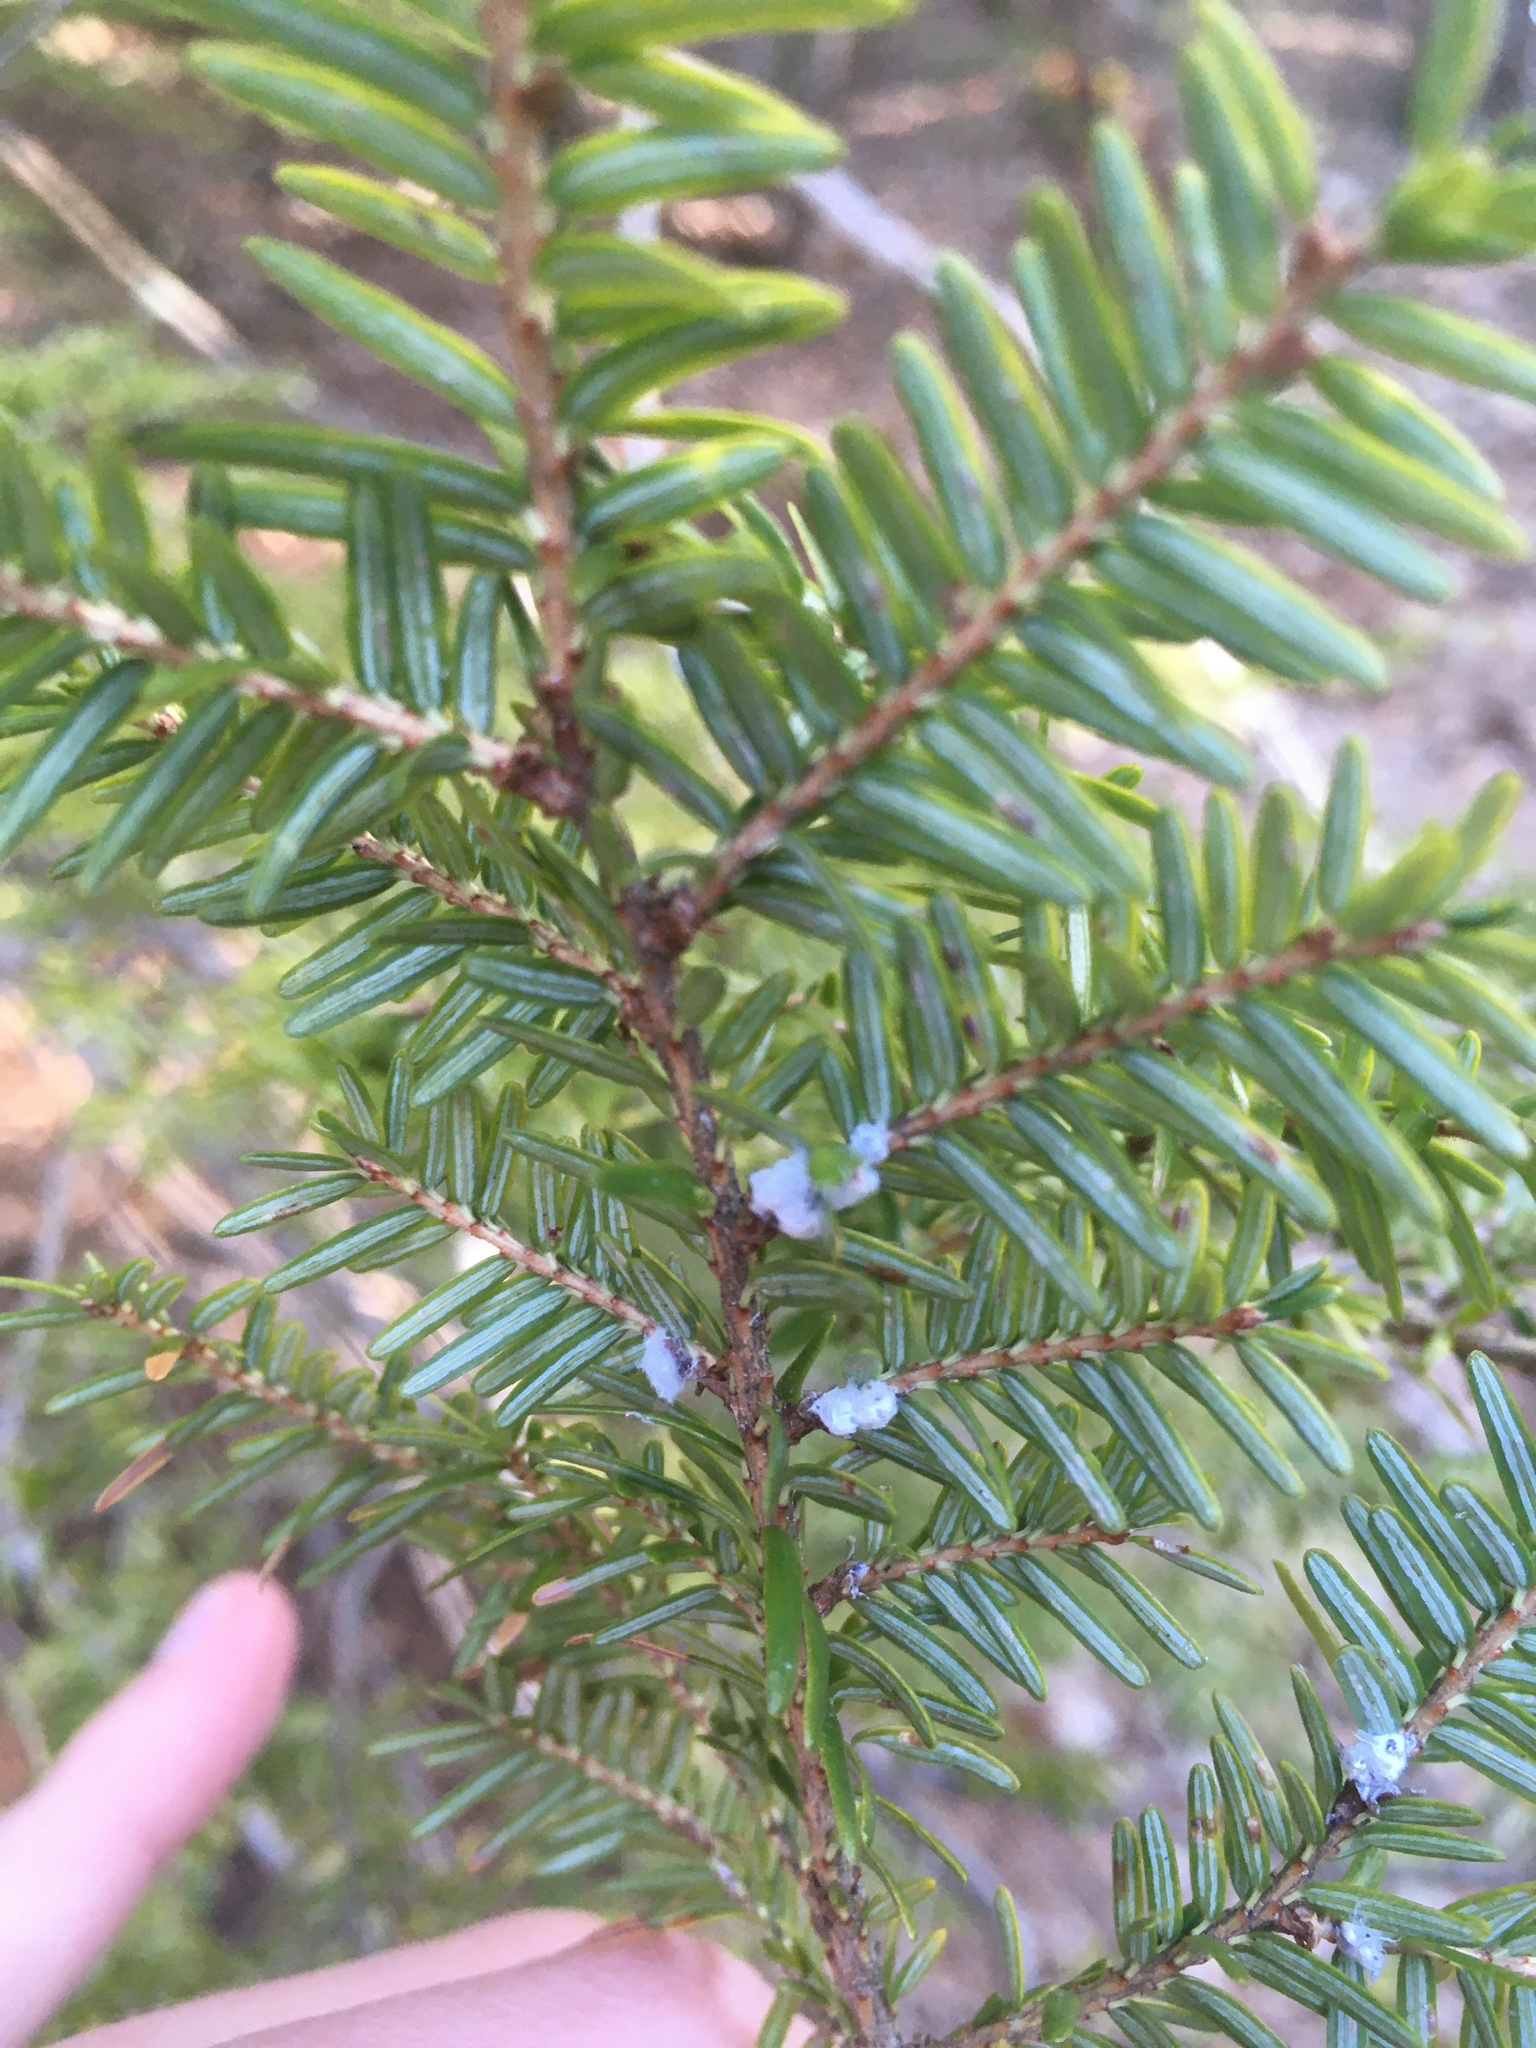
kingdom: Animalia
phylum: Arthropoda
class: Insecta
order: Hemiptera
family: Adelgidae
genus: Adelges
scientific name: Adelges tsugae
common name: Hemlock woolly adelgid
